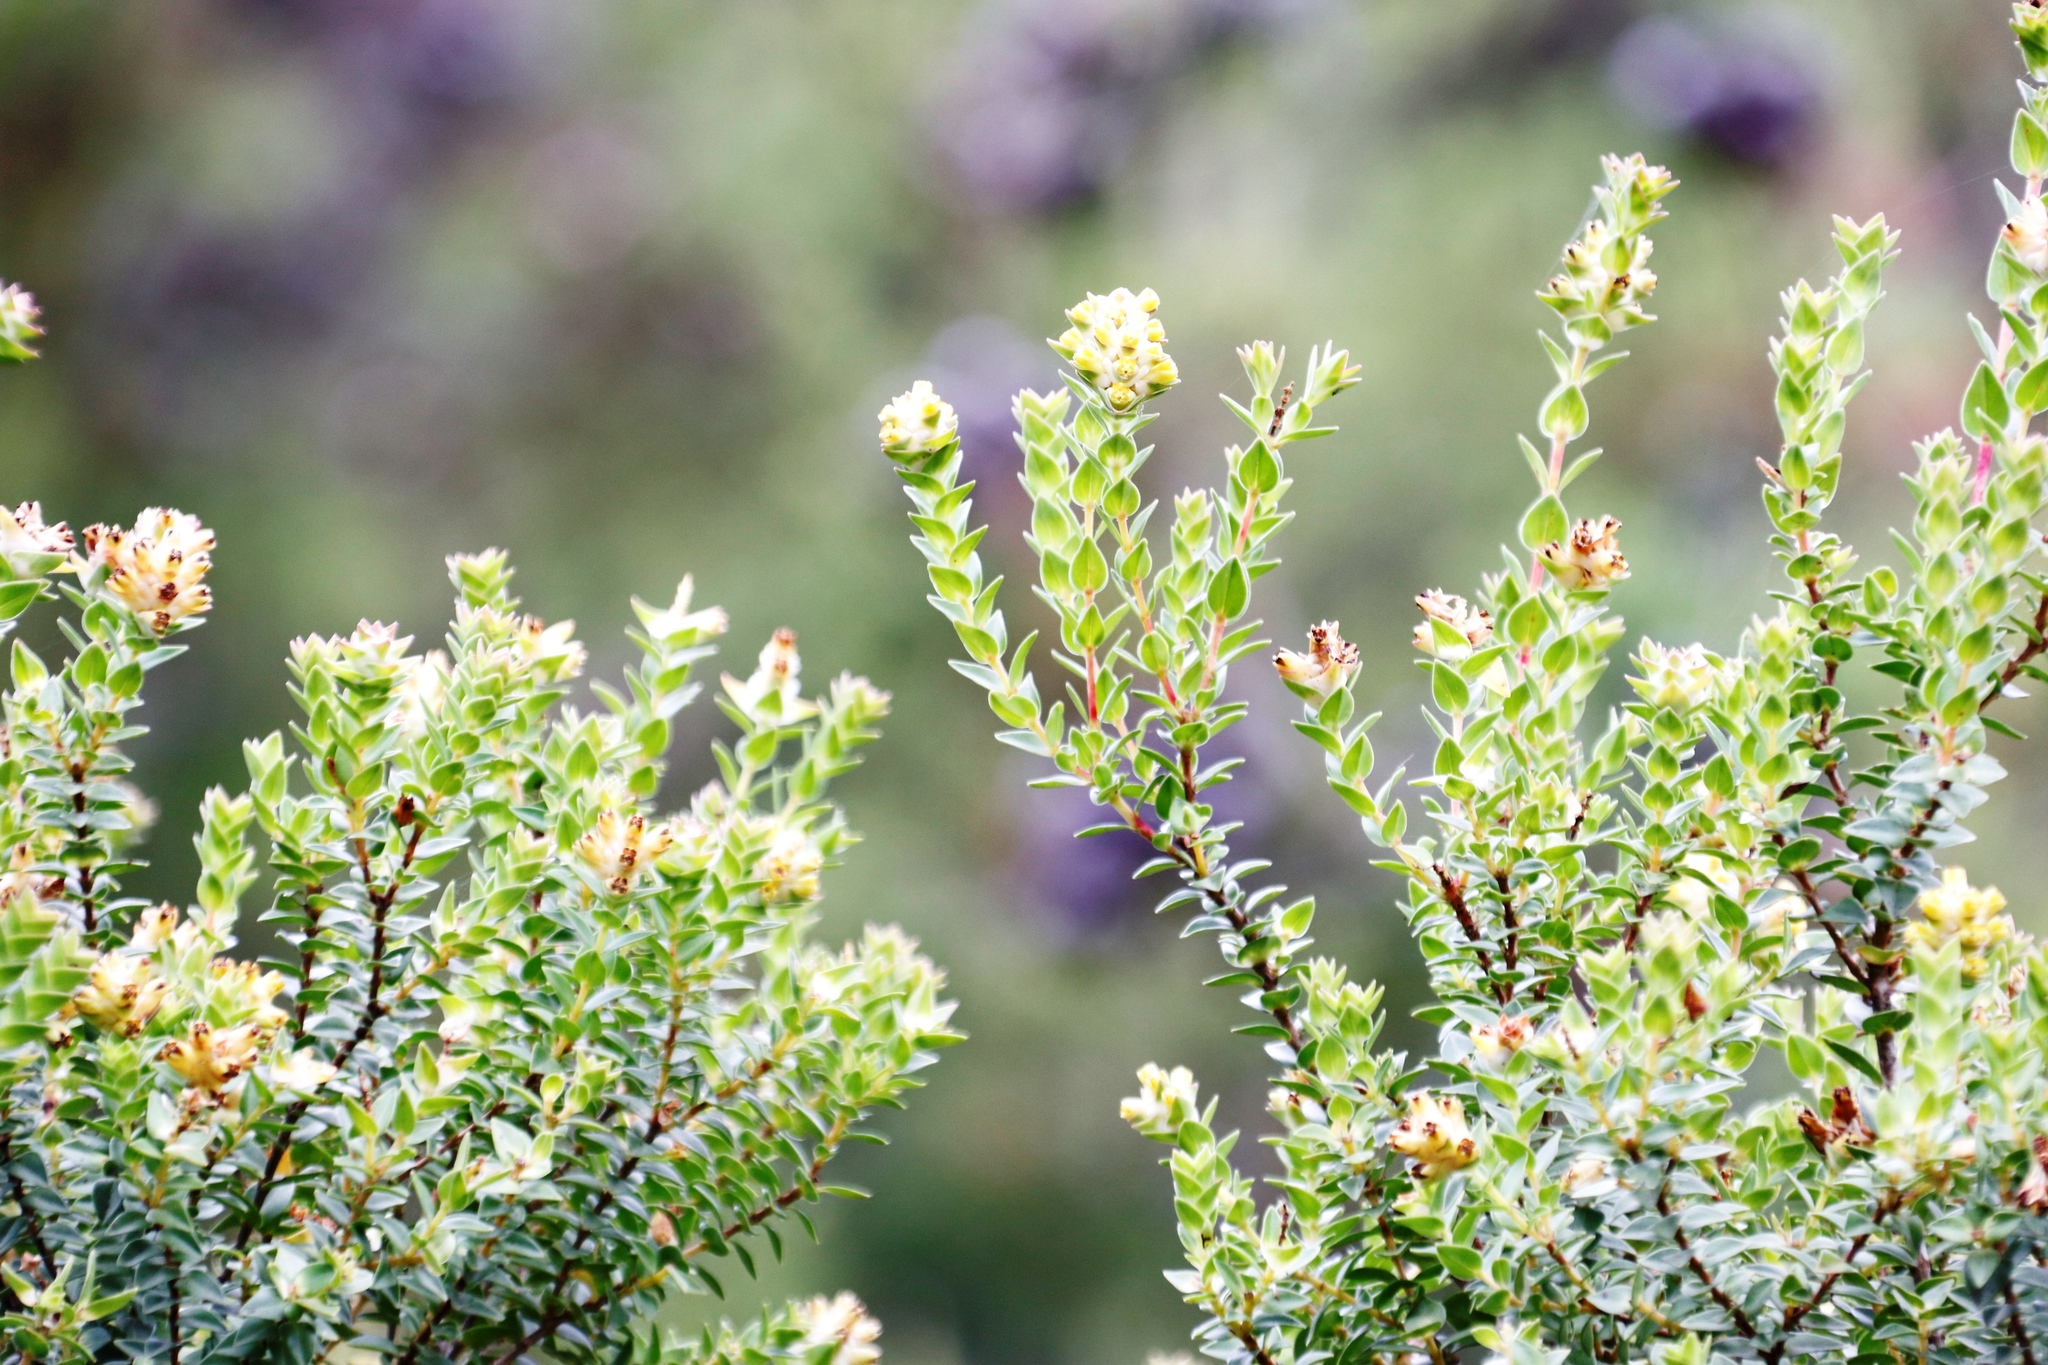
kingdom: Plantae
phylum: Tracheophyta
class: Magnoliopsida
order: Myrtales
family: Penaeaceae
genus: Penaea
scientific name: Penaea cneorum
